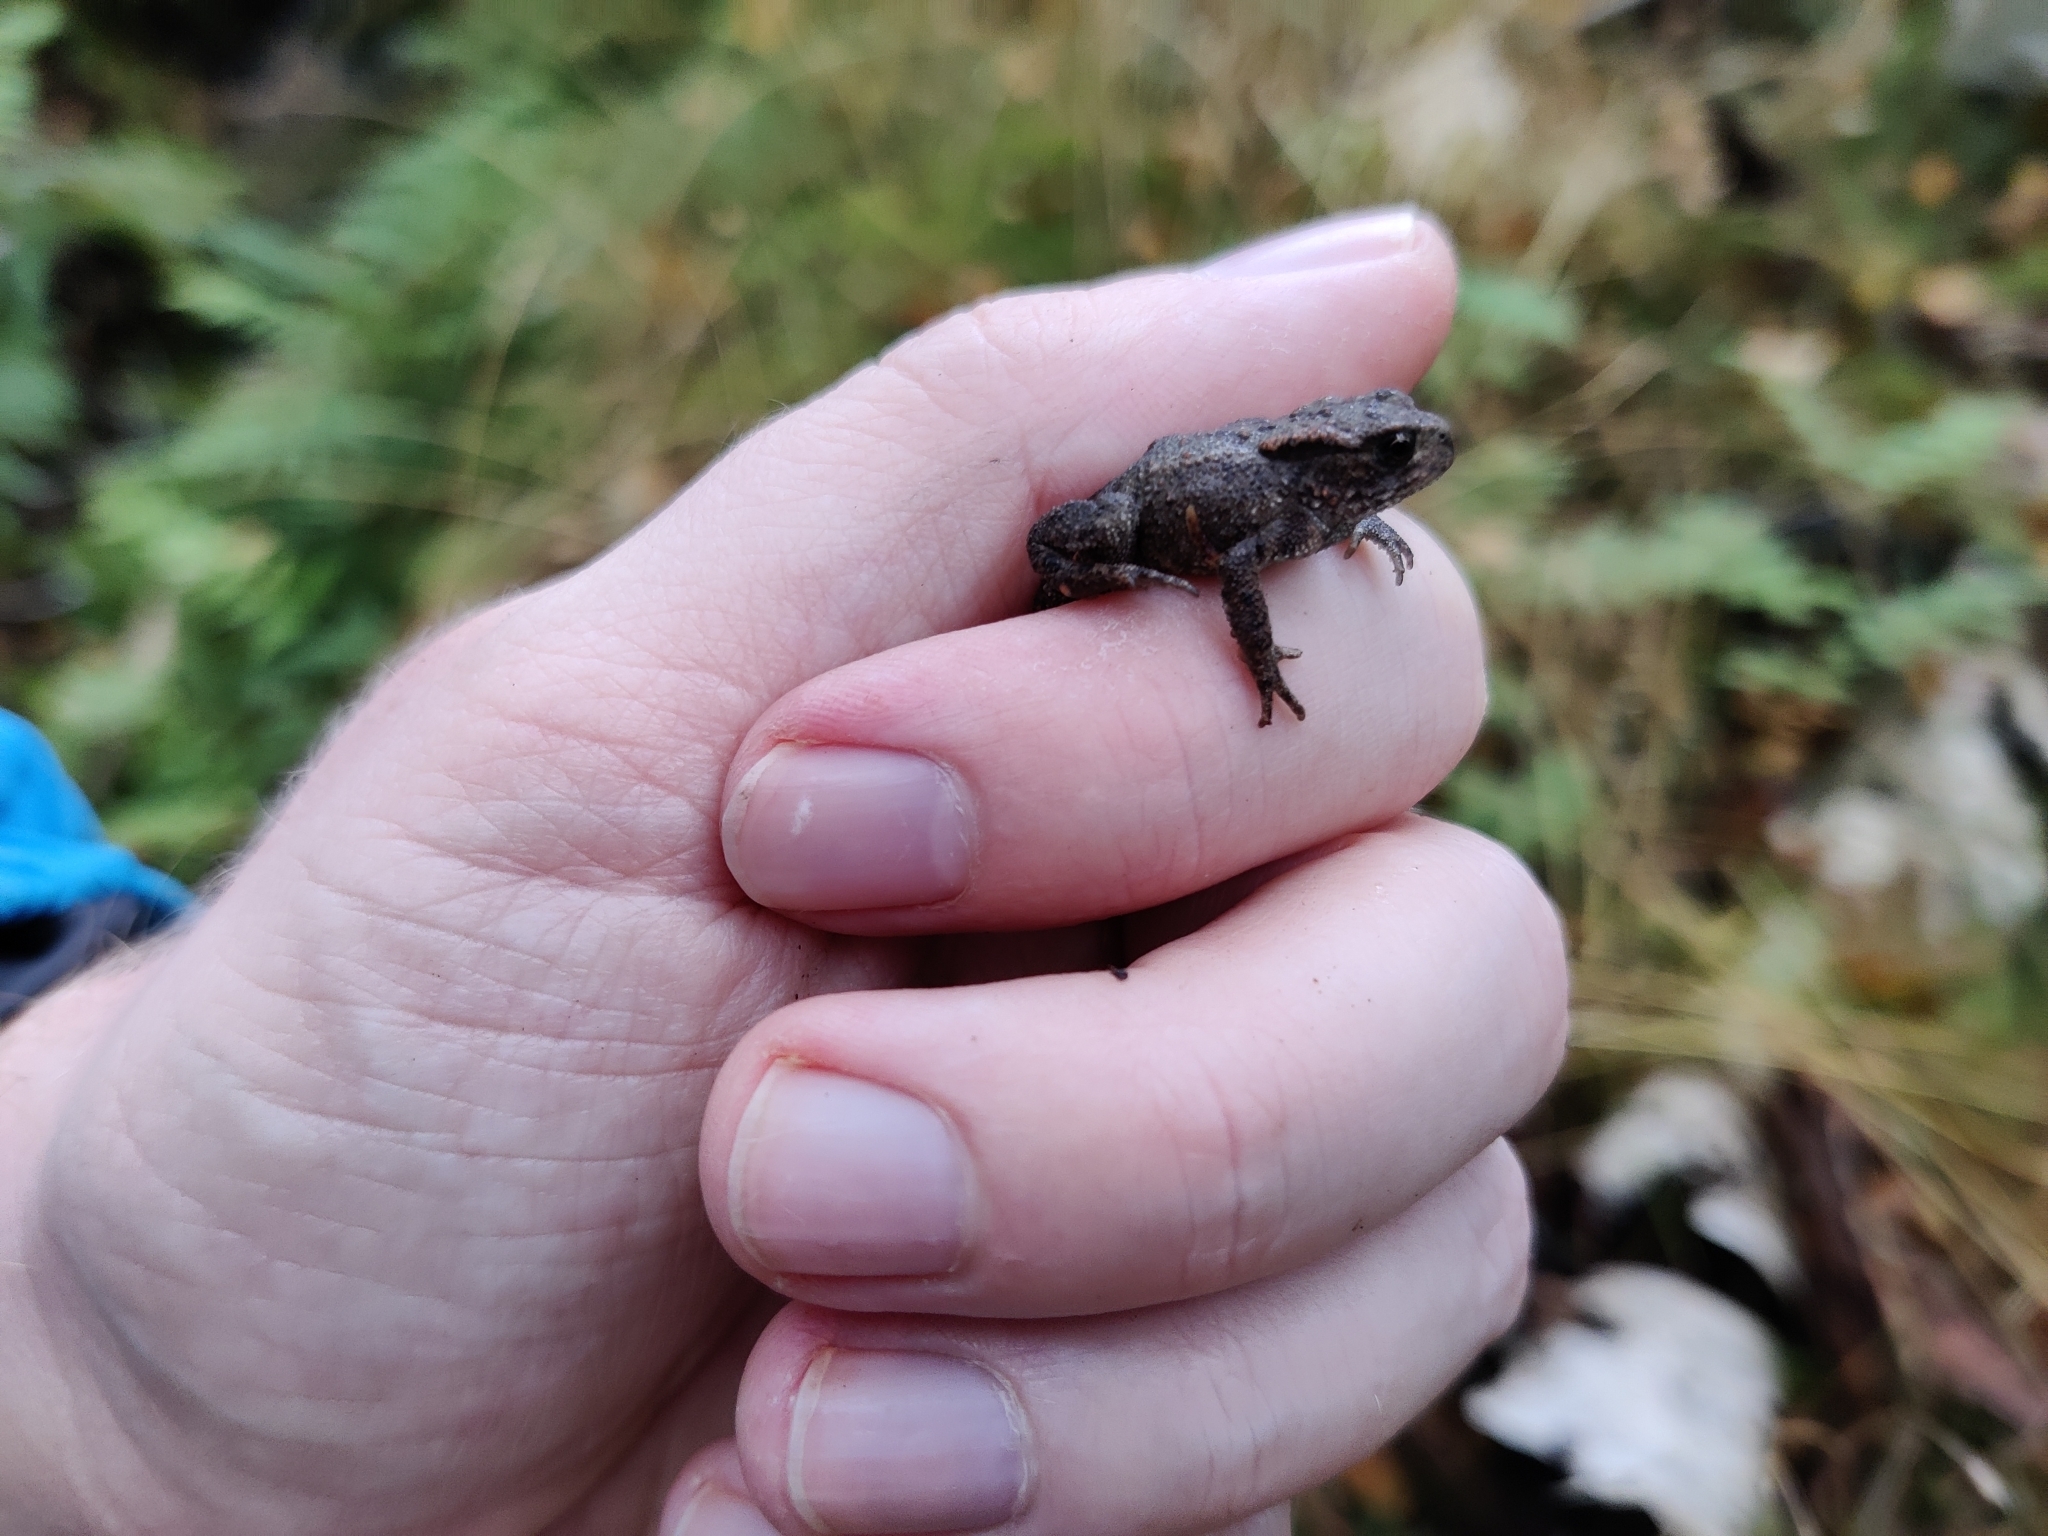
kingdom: Animalia
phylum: Chordata
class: Amphibia
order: Anura
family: Bufonidae
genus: Bufo
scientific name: Bufo bufo
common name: Common toad
